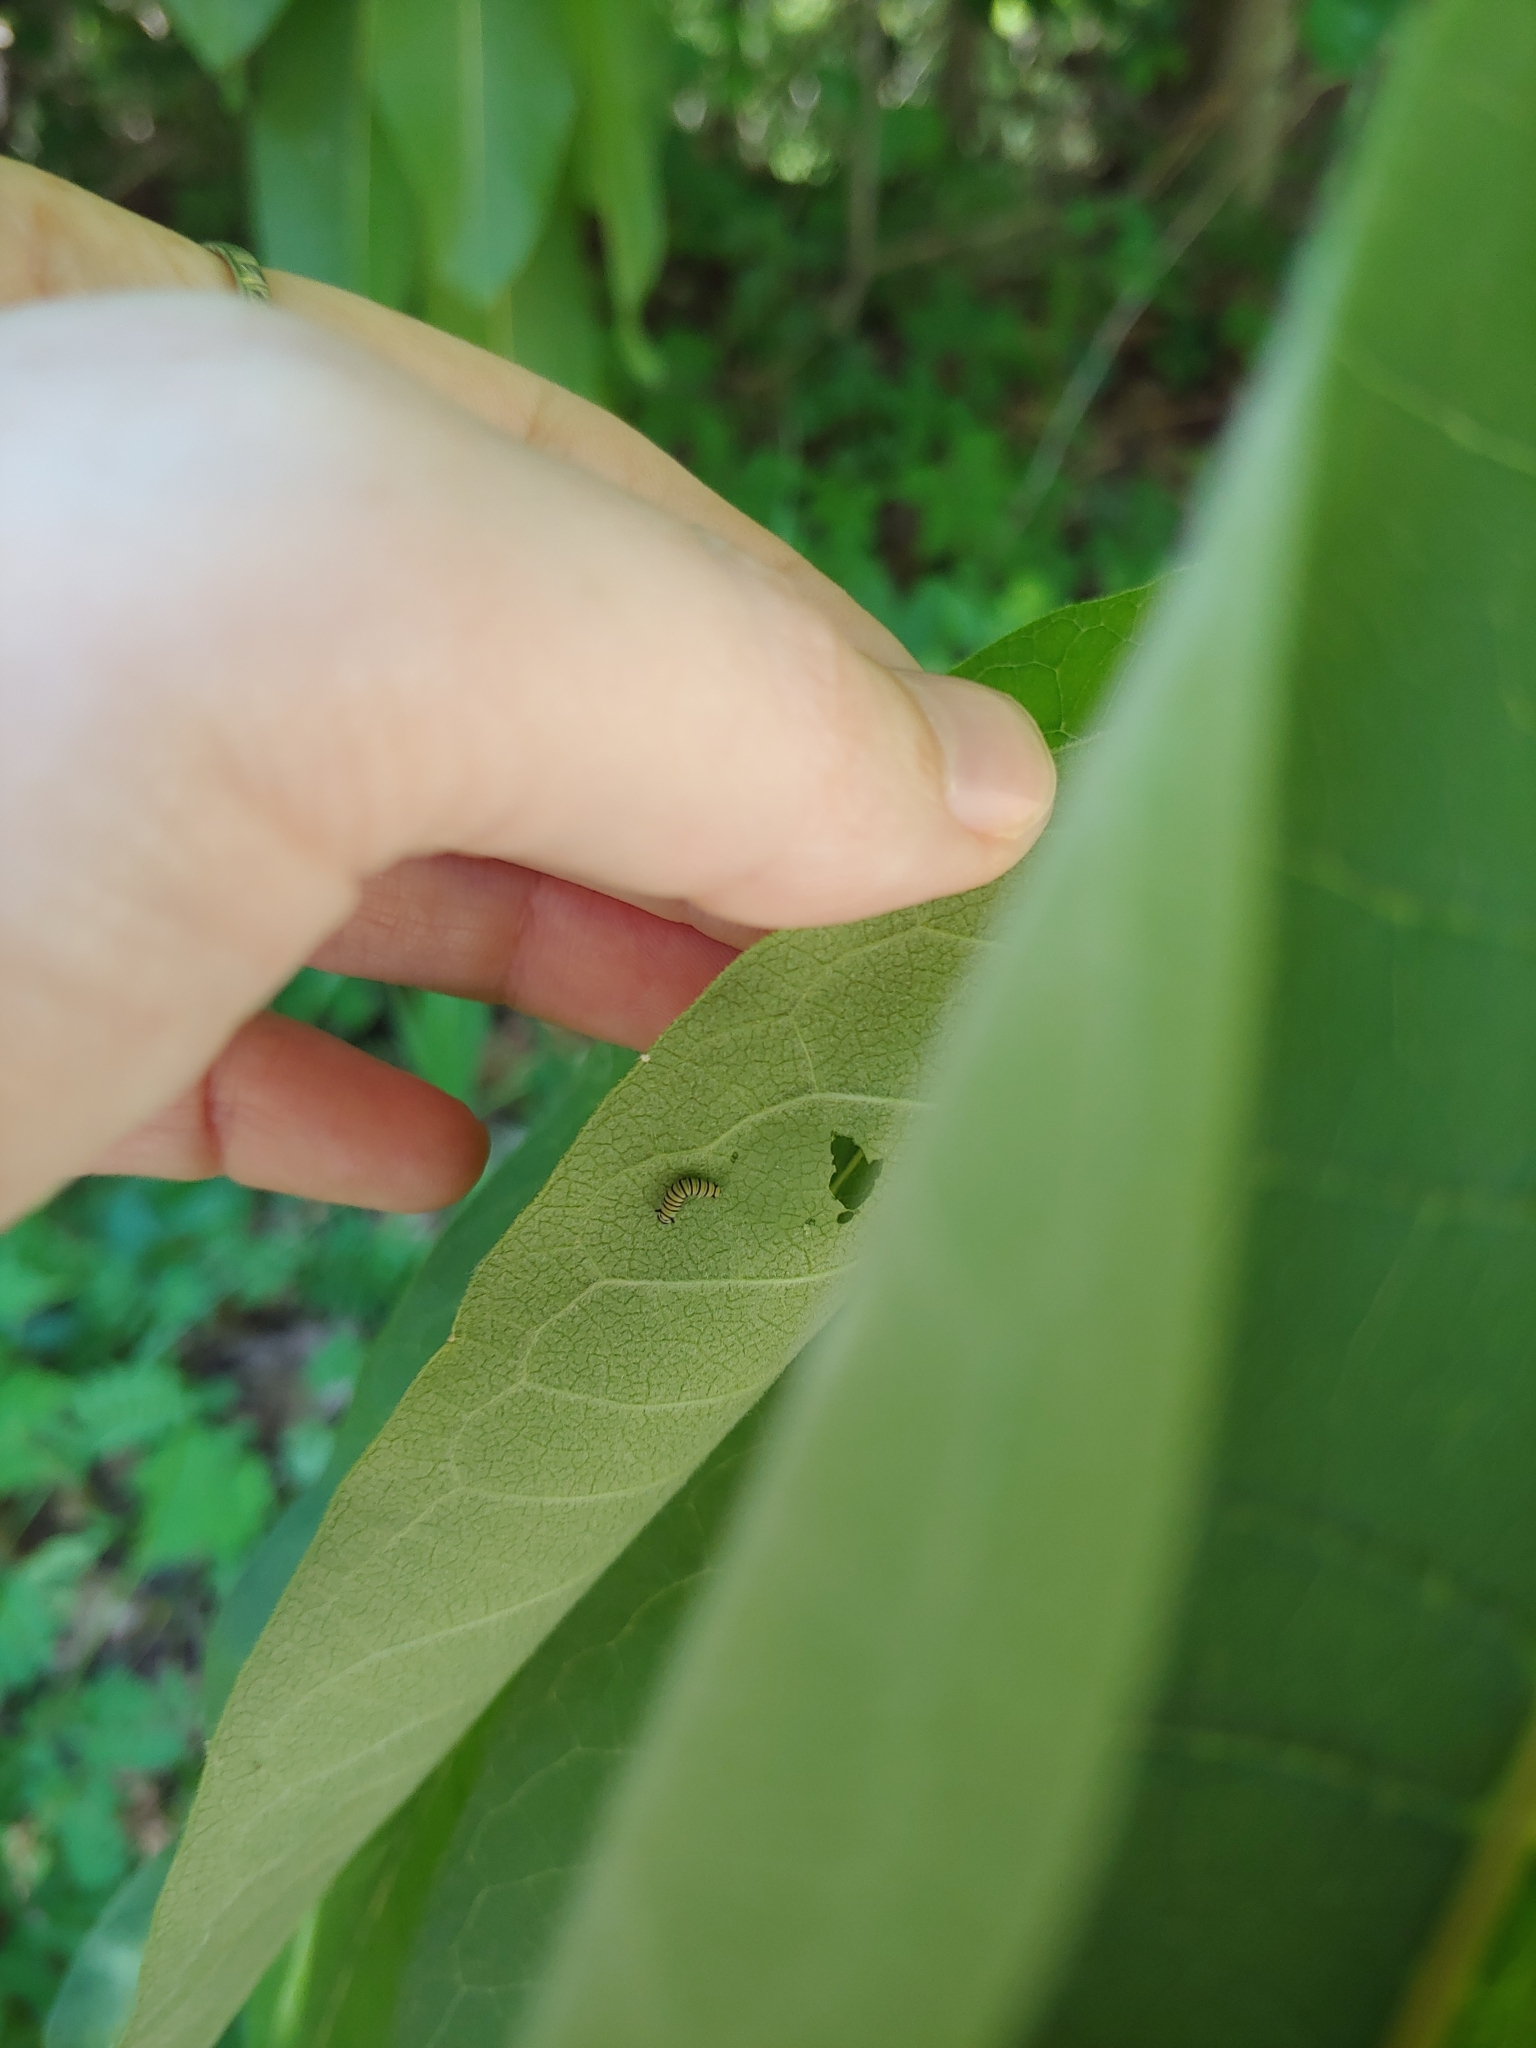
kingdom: Animalia
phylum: Arthropoda
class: Insecta
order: Lepidoptera
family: Nymphalidae
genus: Danaus
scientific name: Danaus plexippus
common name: Monarch
